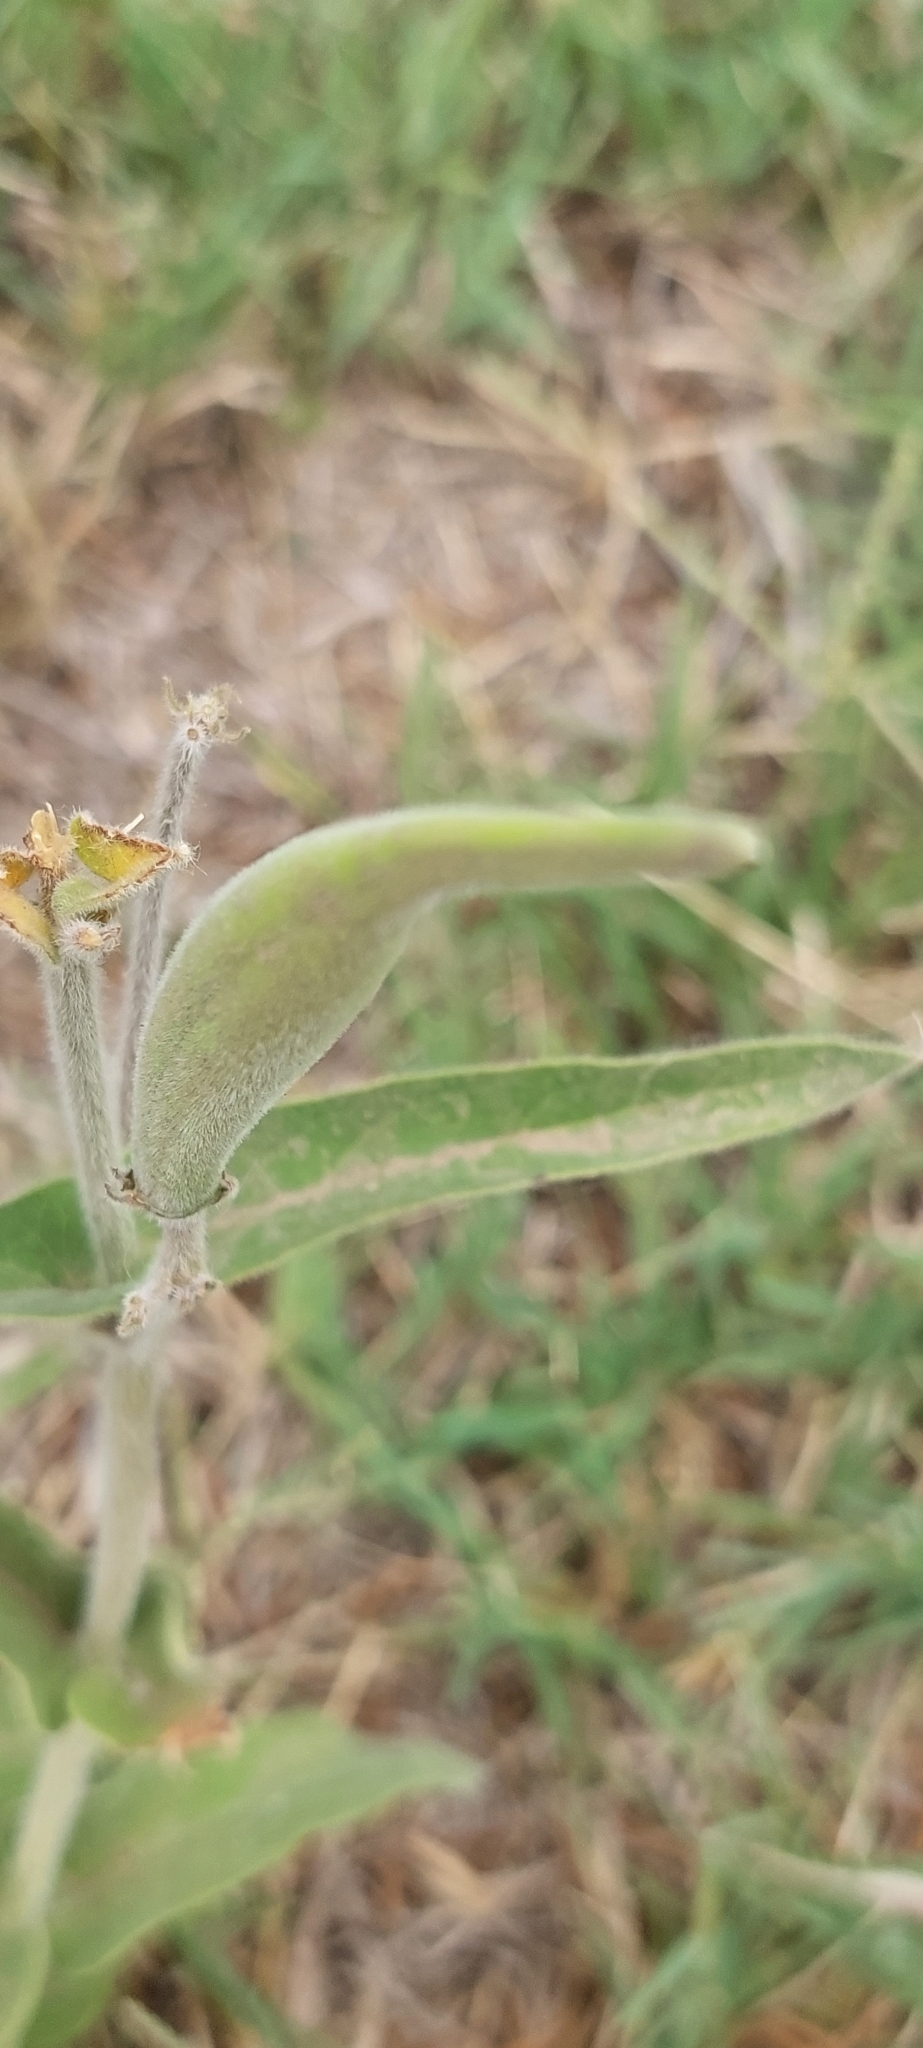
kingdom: Plantae
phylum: Tracheophyta
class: Magnoliopsida
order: Gentianales
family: Apocynaceae
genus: Oxypetalum
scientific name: Oxypetalum solanoides
